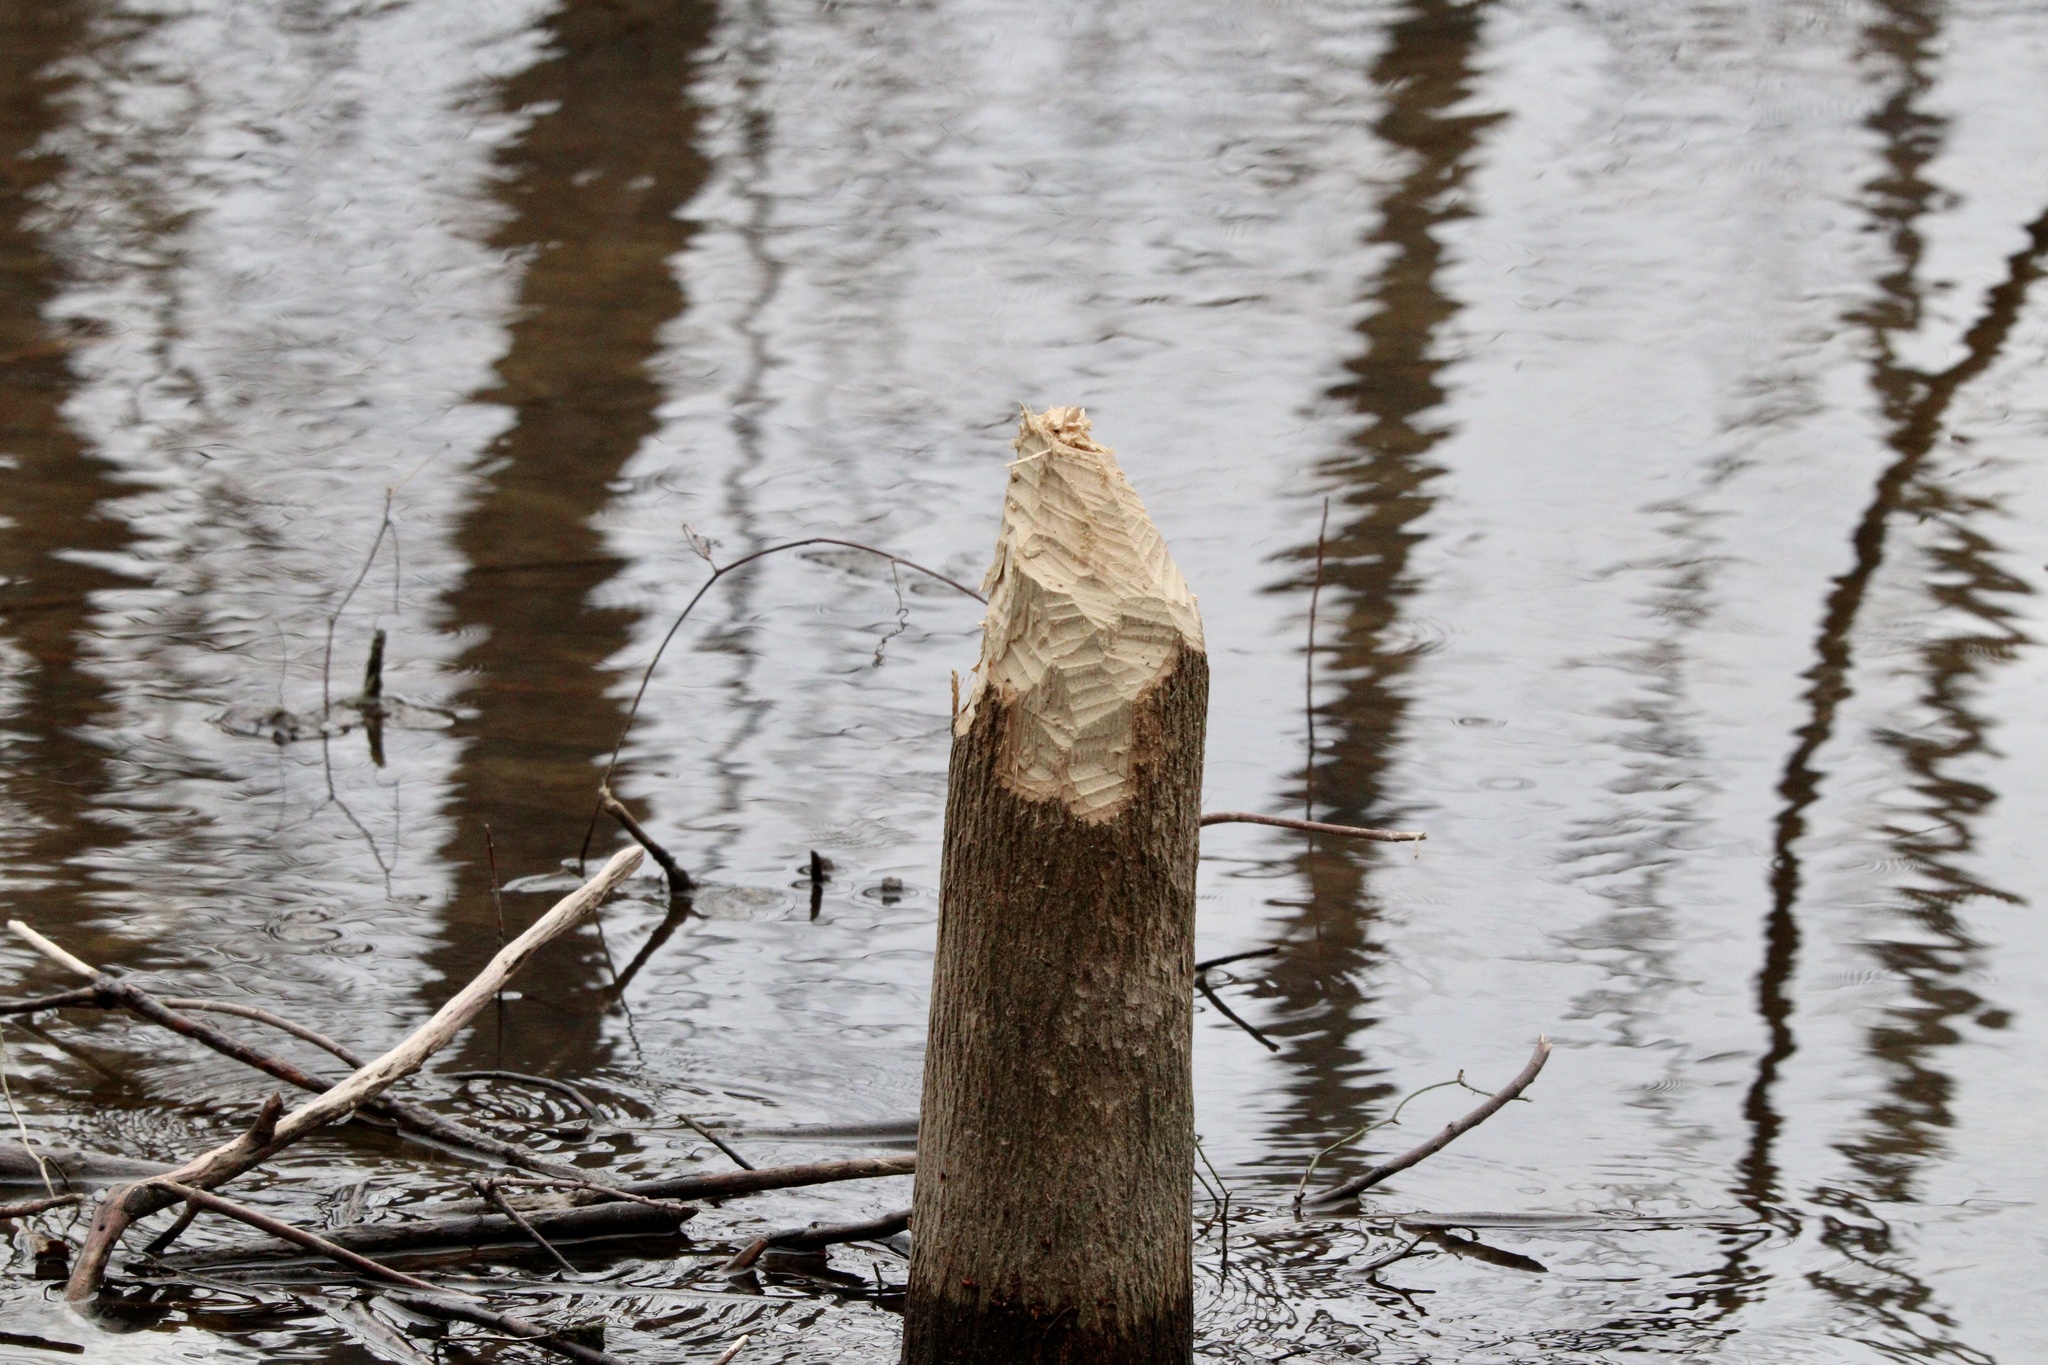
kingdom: Animalia
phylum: Chordata
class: Mammalia
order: Rodentia
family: Castoridae
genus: Castor
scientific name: Castor canadensis
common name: American beaver
